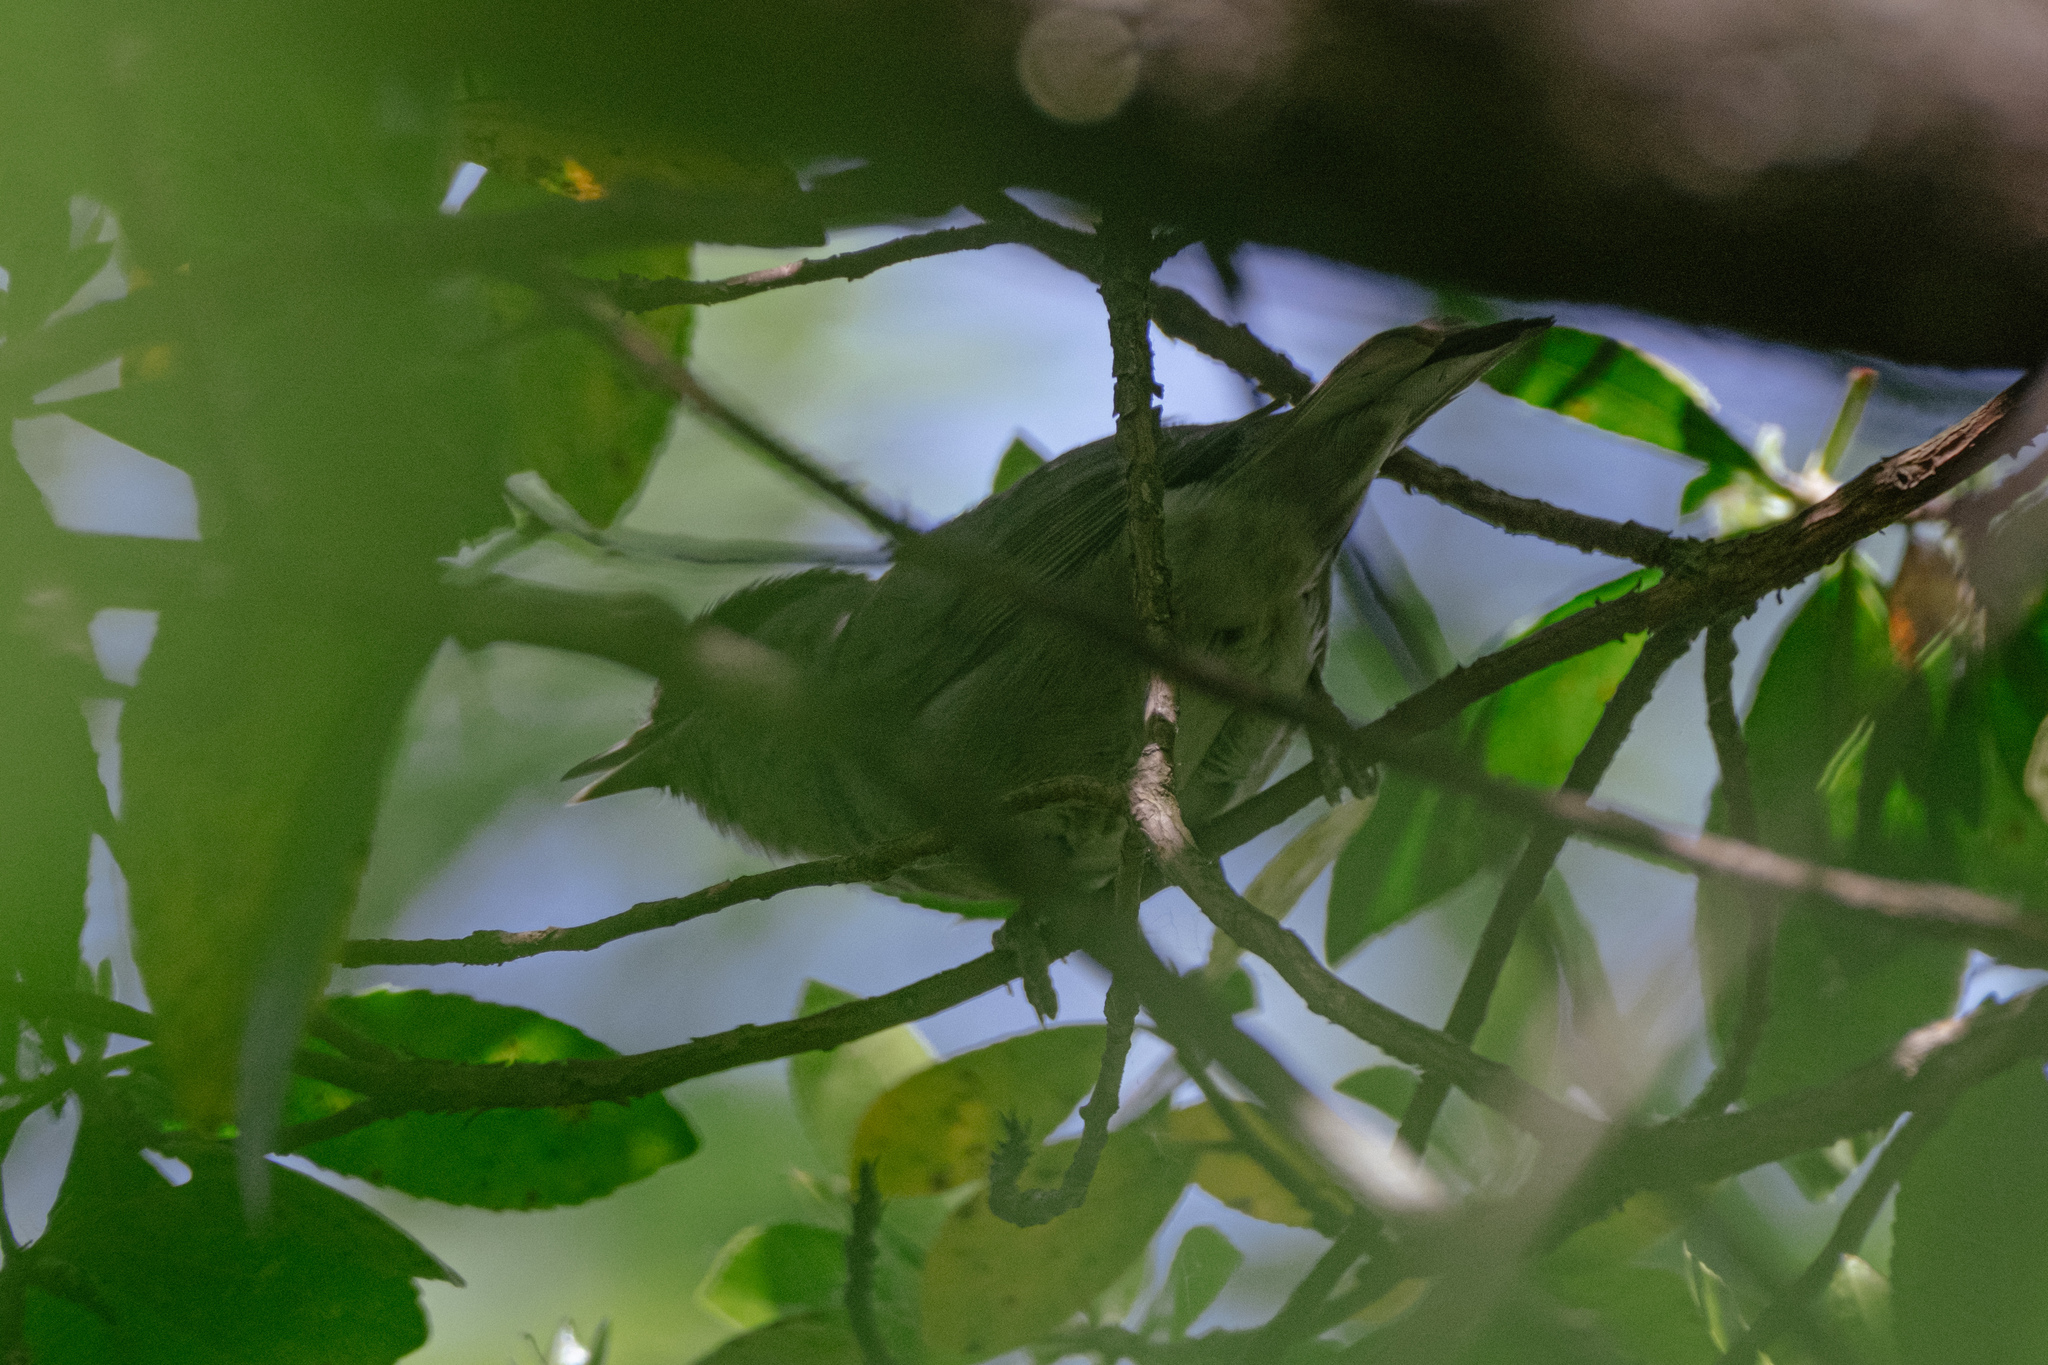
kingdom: Animalia
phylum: Chordata
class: Aves
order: Passeriformes
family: Sylviidae
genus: Sylvia
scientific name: Sylvia atricapilla
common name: Eurasian blackcap
